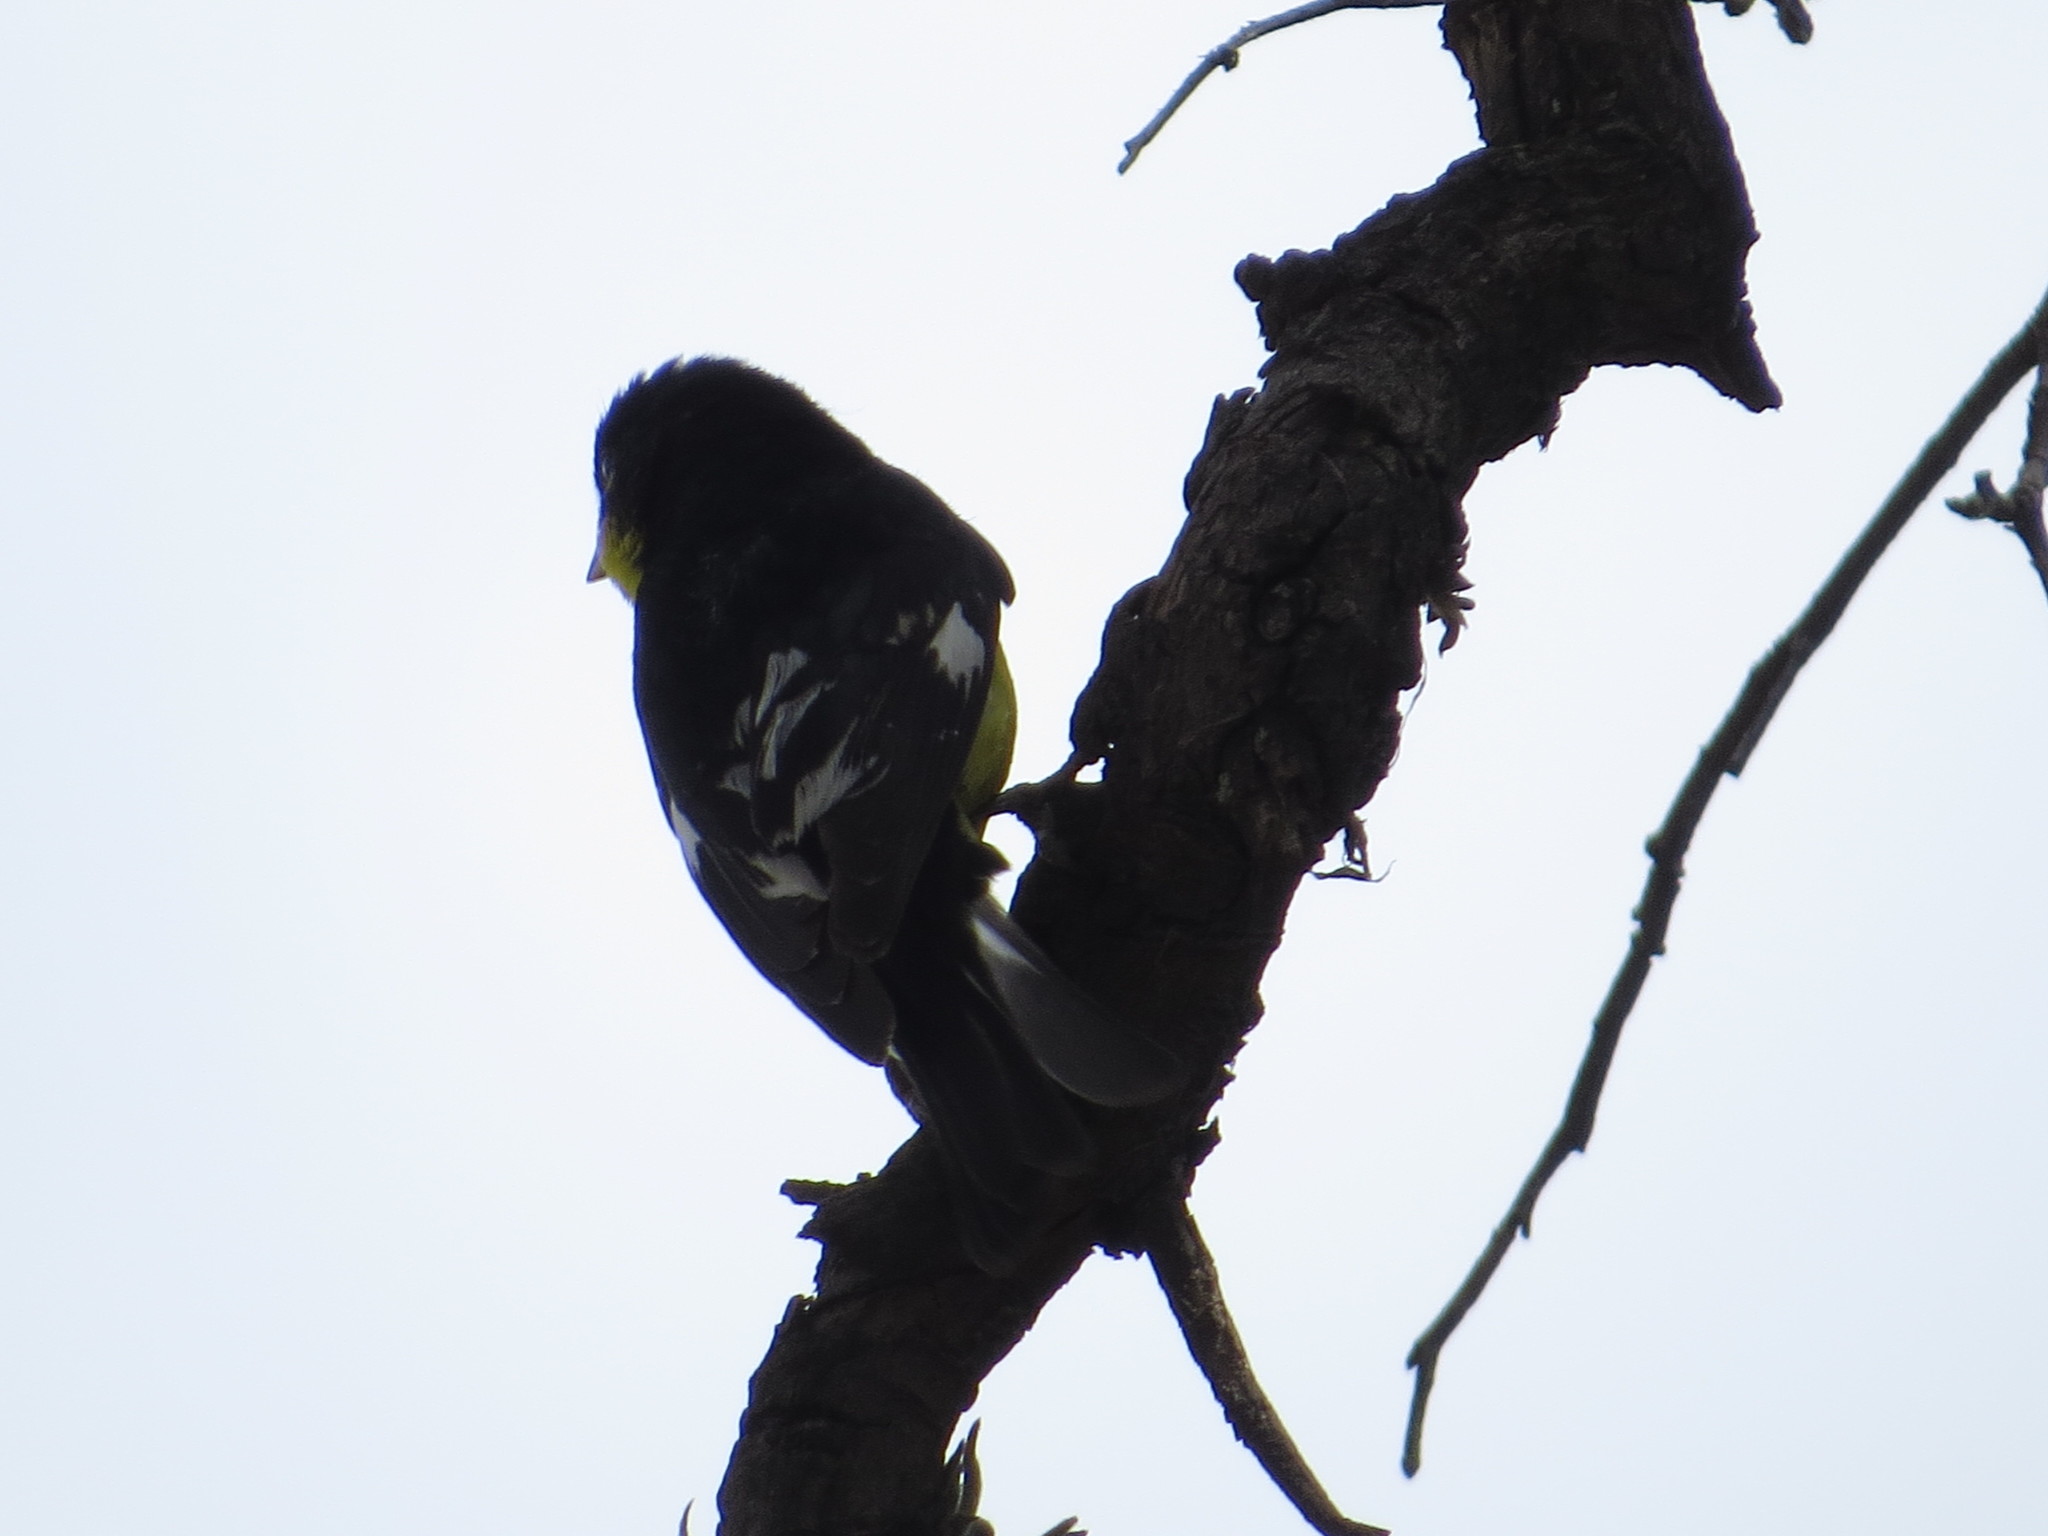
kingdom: Animalia
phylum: Chordata
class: Aves
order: Passeriformes
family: Fringillidae
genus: Spinus
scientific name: Spinus psaltria
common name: Lesser goldfinch
